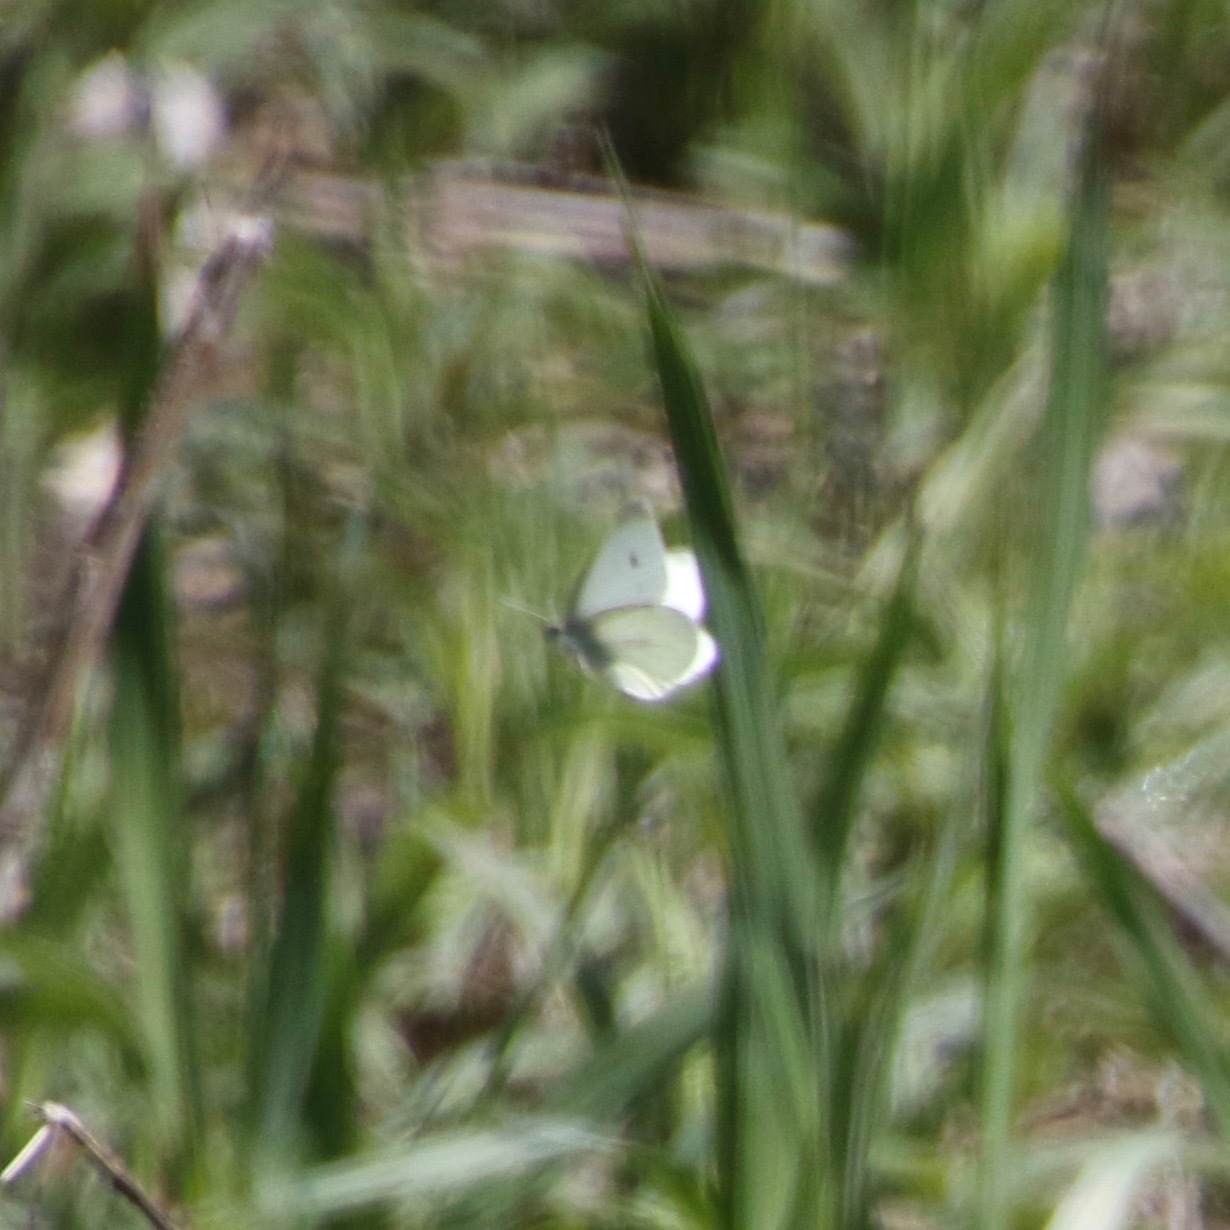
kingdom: Animalia
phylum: Arthropoda
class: Insecta
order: Lepidoptera
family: Pieridae
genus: Pieris
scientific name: Pieris rapae
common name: Small white
